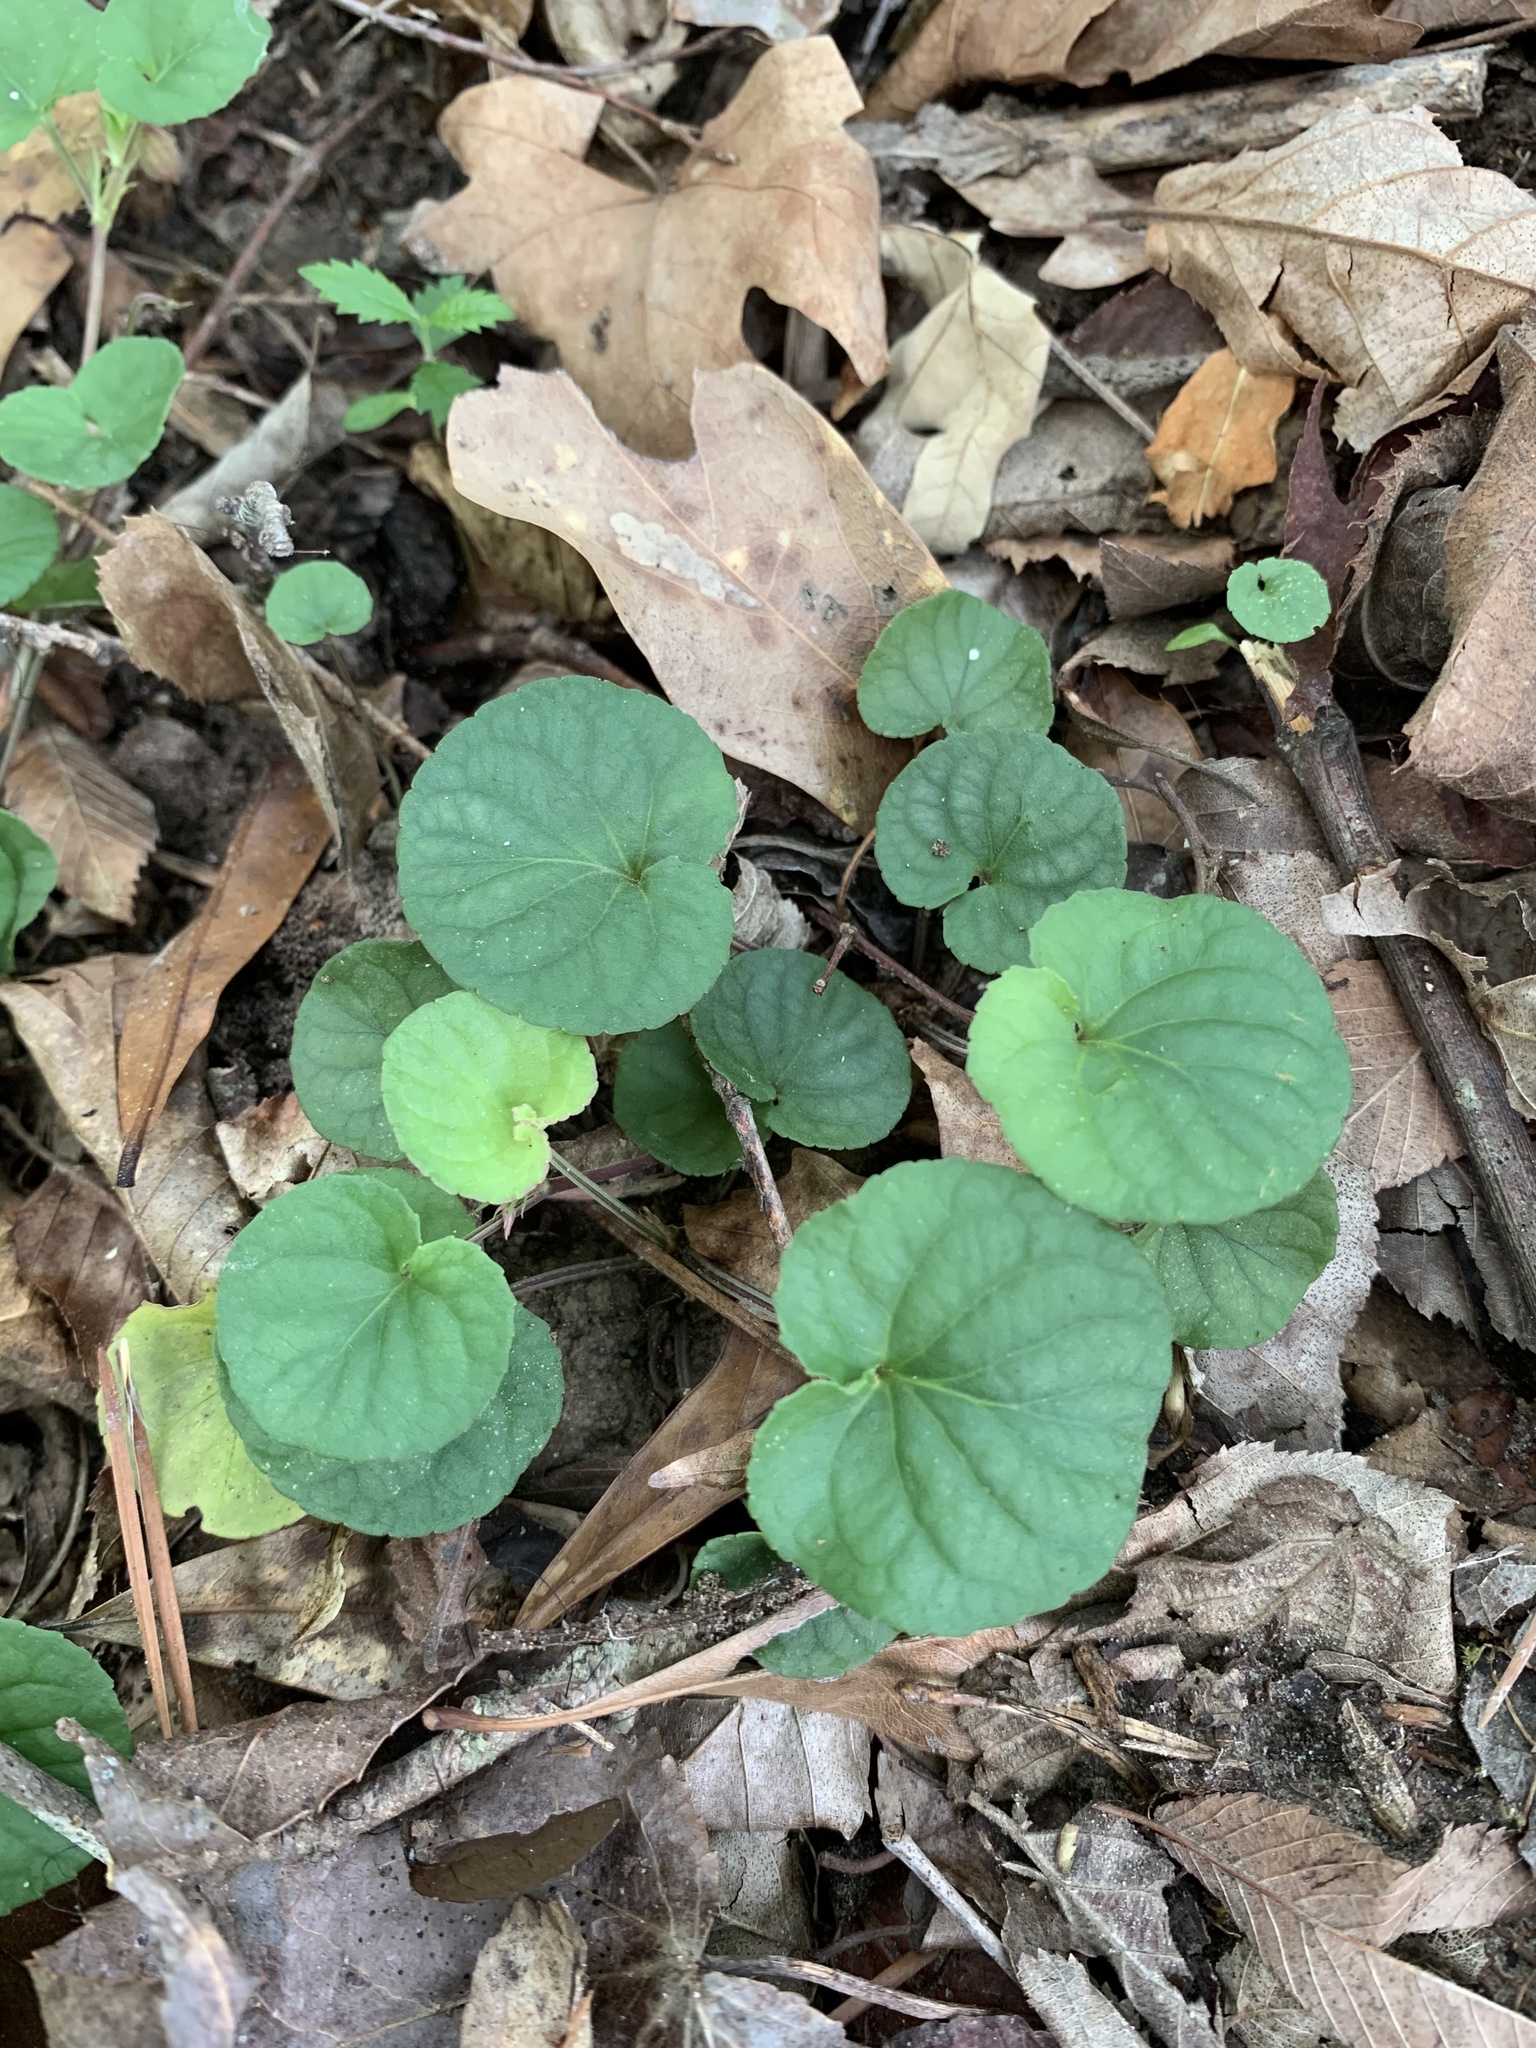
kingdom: Plantae
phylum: Tracheophyta
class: Magnoliopsida
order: Malpighiales
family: Violaceae
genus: Viola
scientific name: Viola walteri
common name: Prostrate southern violet
